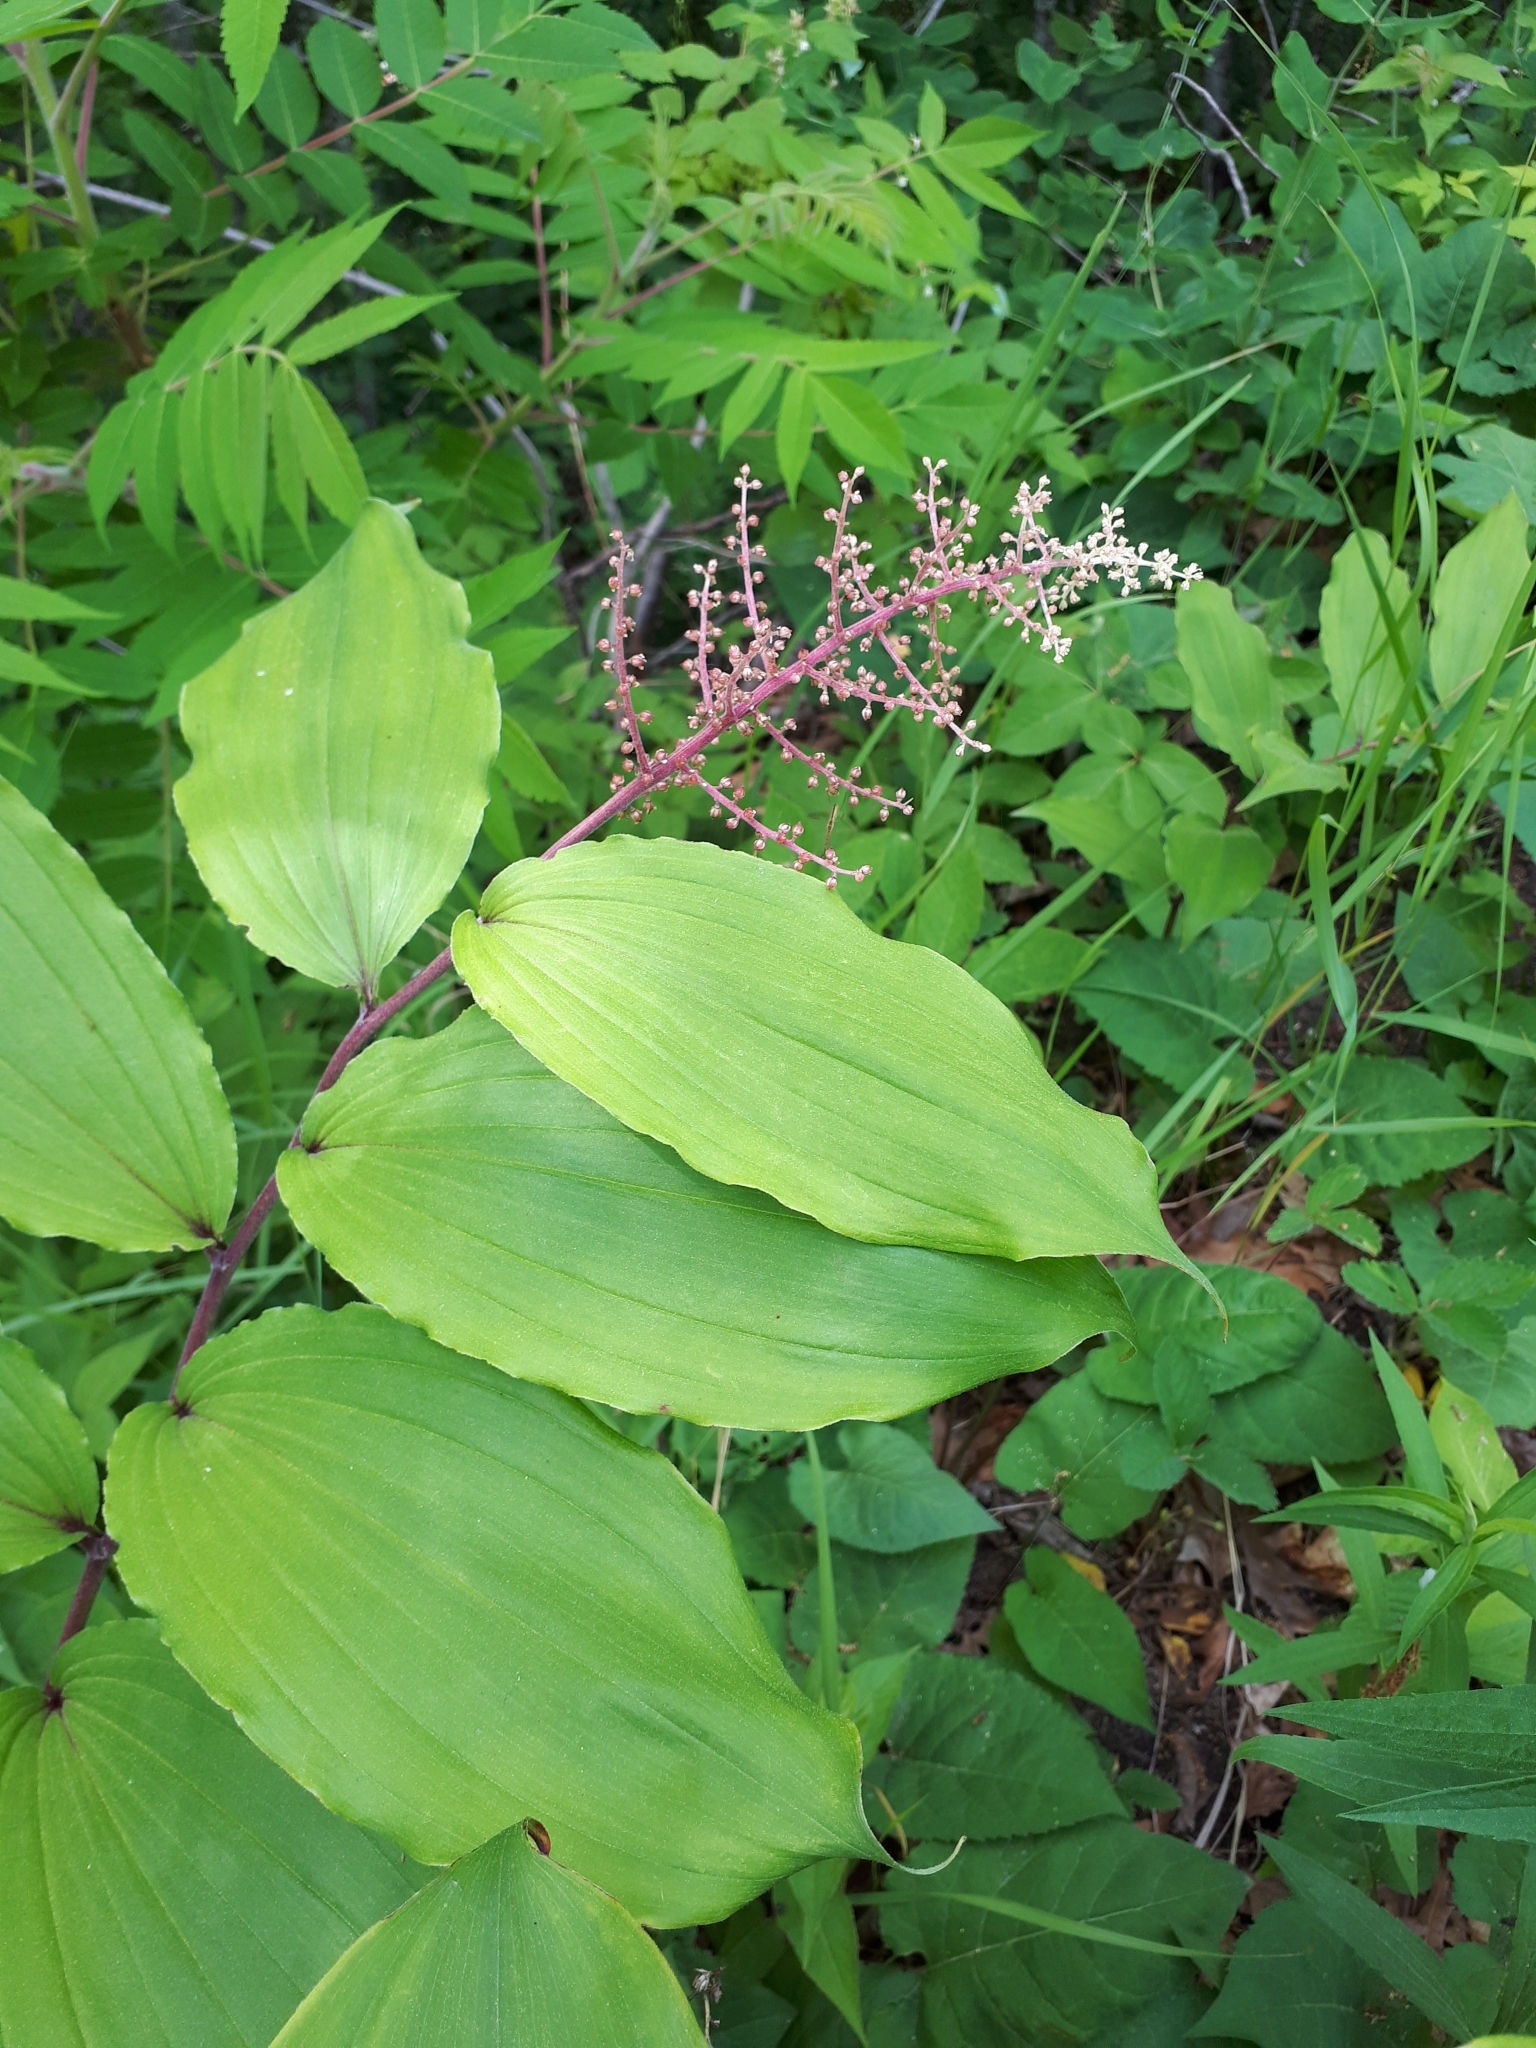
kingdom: Plantae
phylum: Tracheophyta
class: Liliopsida
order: Asparagales
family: Asparagaceae
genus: Maianthemum
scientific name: Maianthemum racemosum
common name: False spikenard
